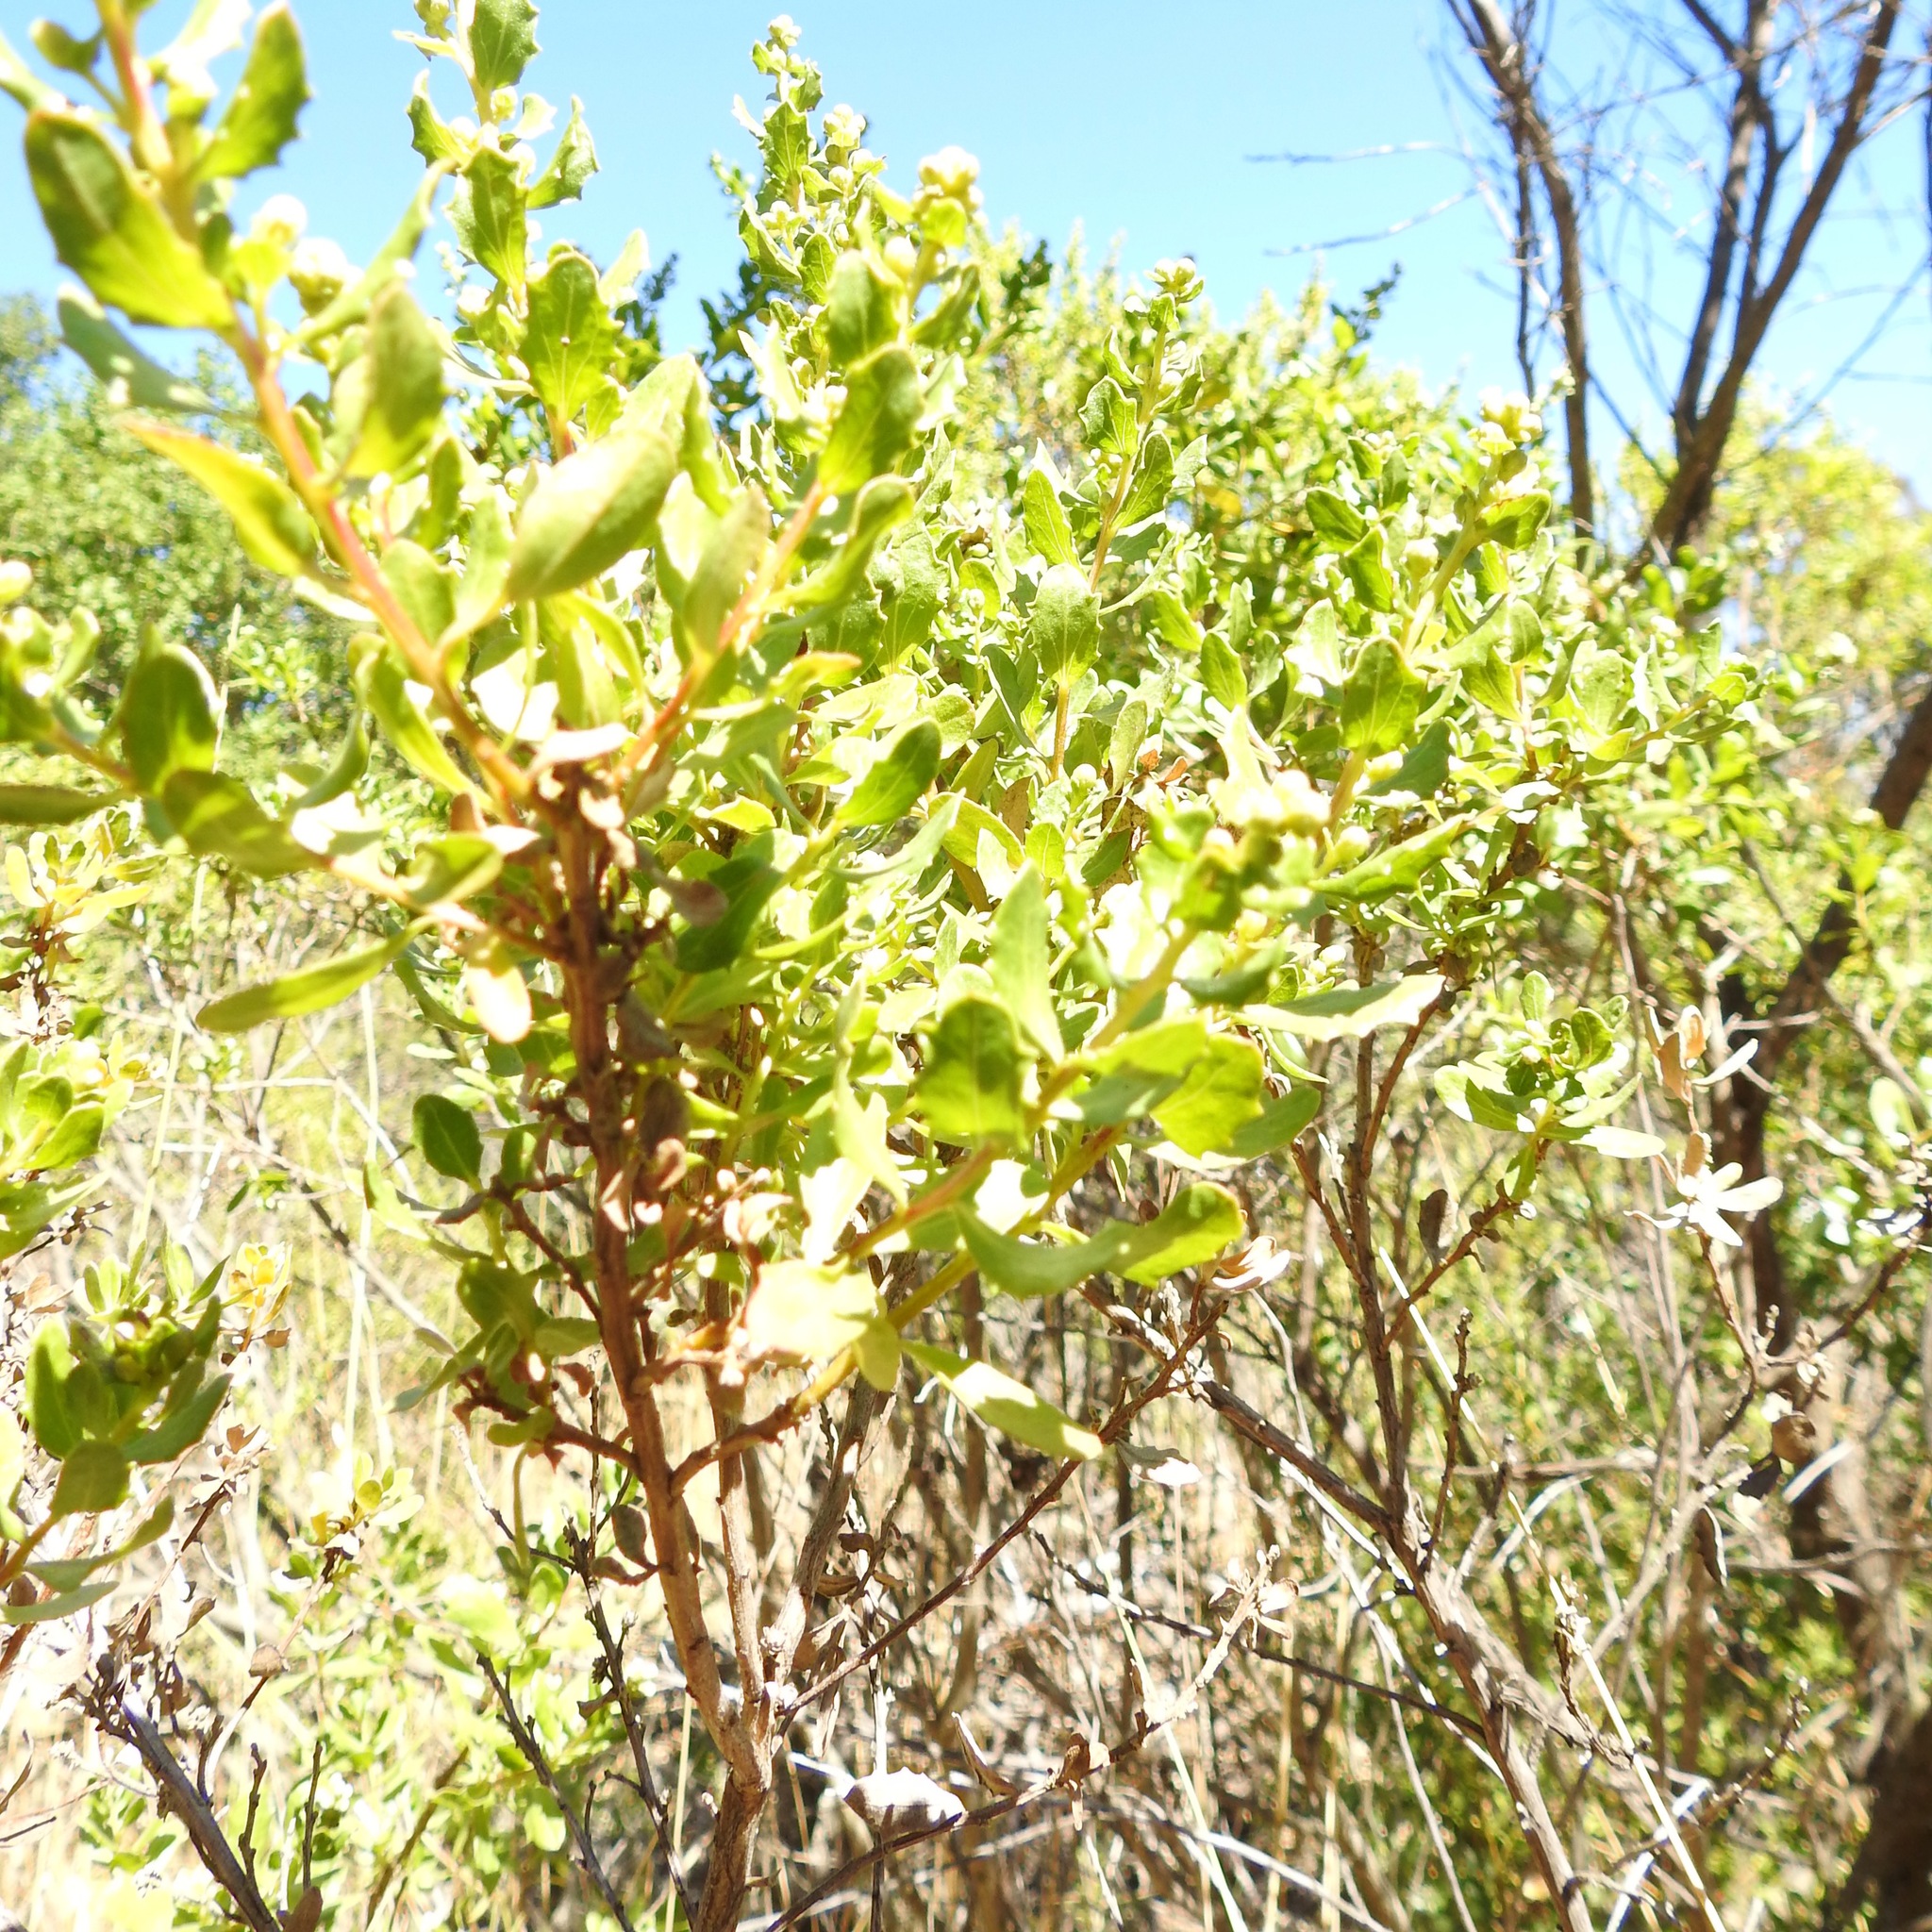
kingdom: Plantae
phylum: Tracheophyta
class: Magnoliopsida
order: Asterales
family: Asteraceae
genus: Baccharis
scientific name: Baccharis pilularis
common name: Coyotebrush
